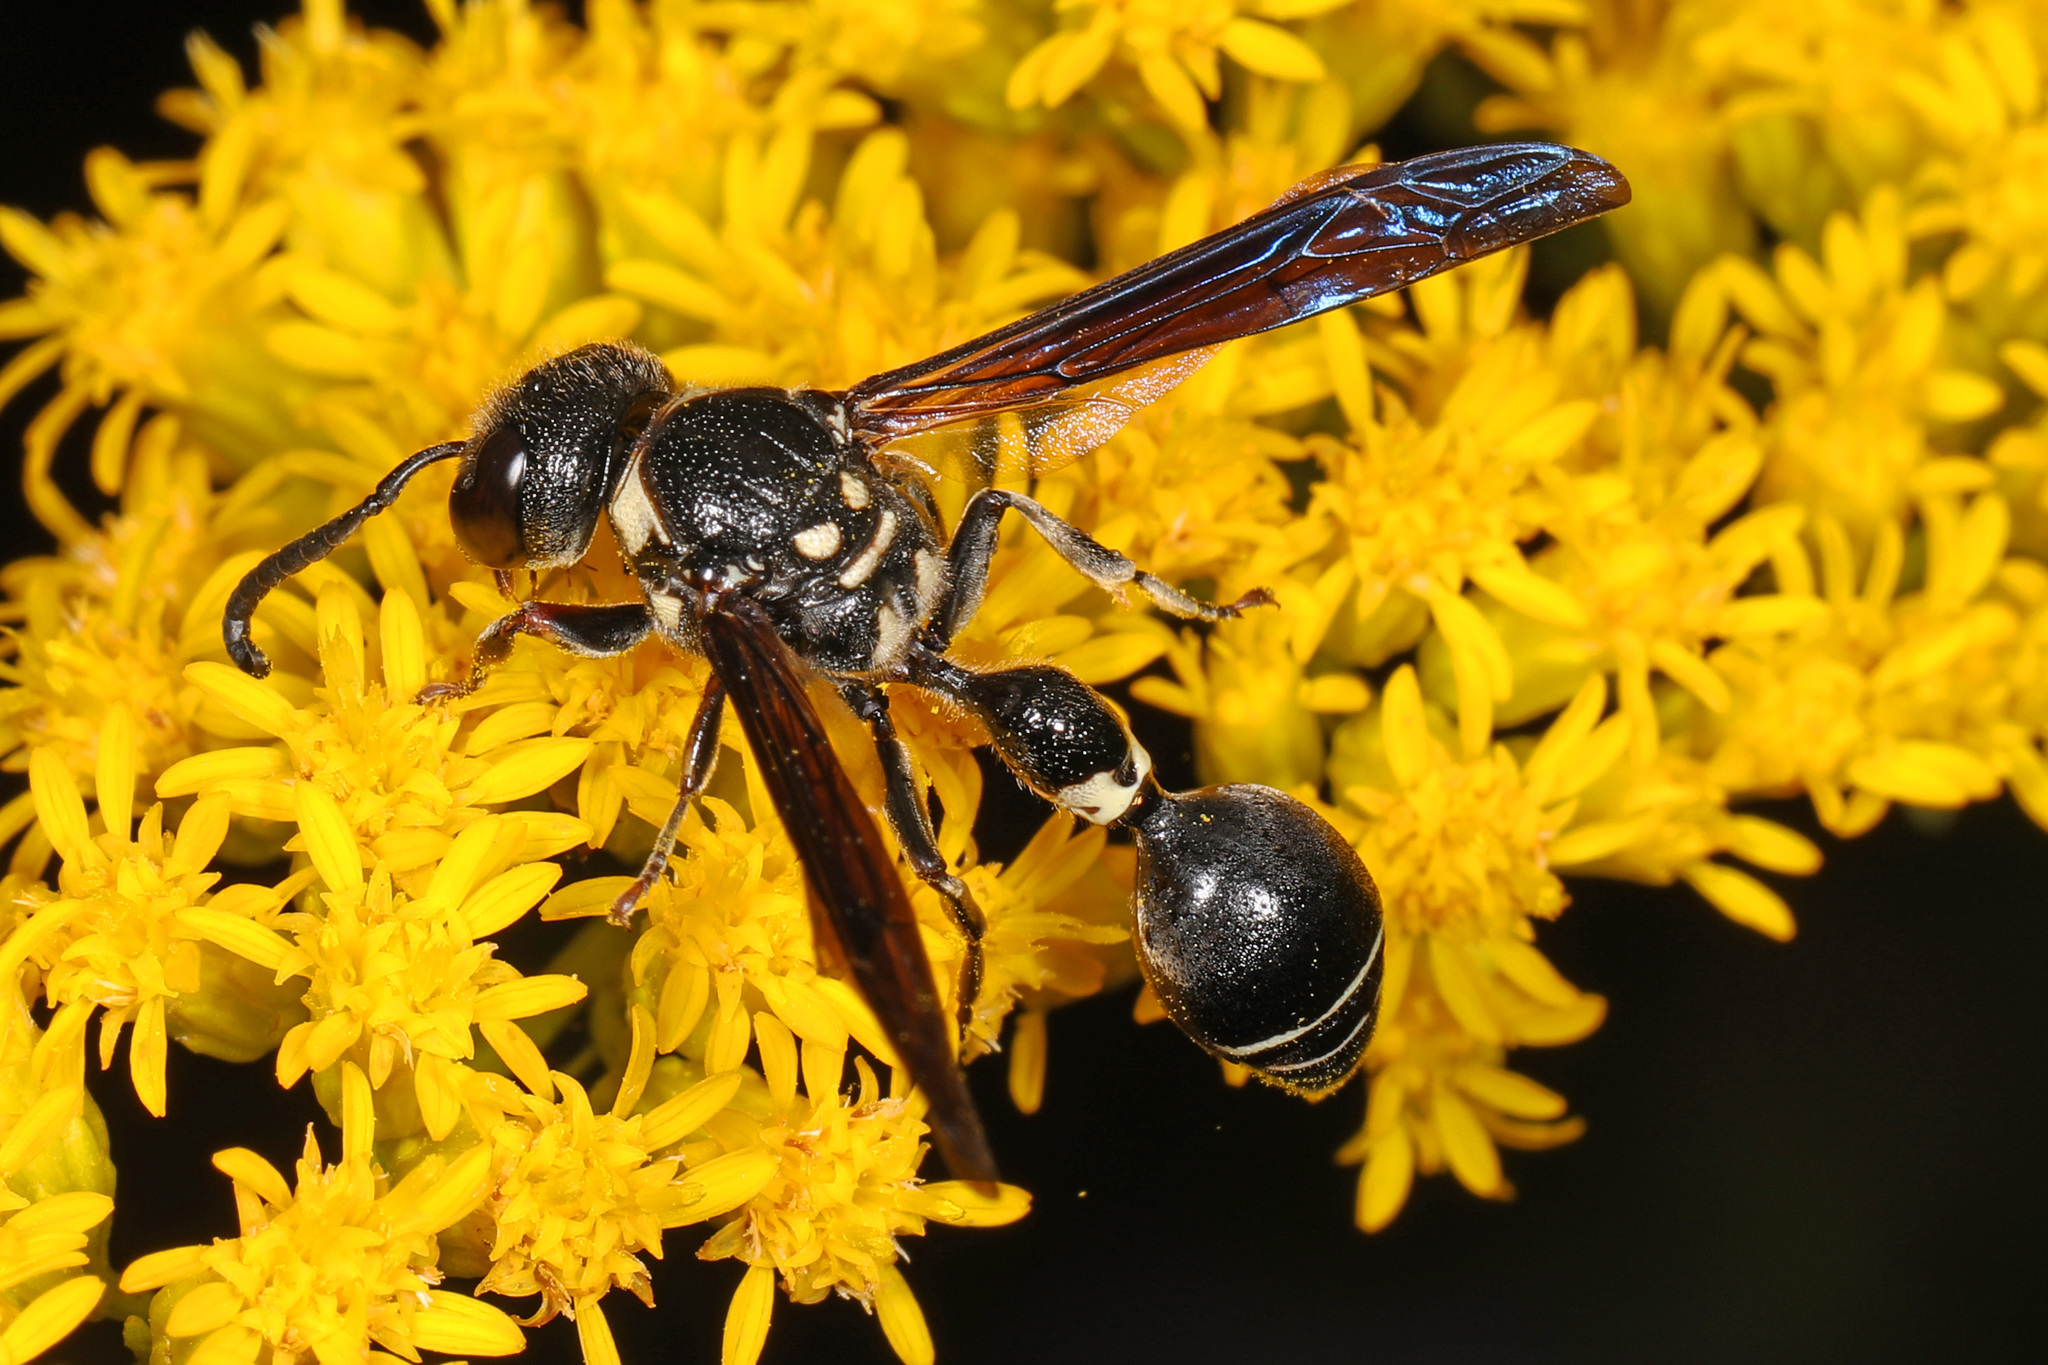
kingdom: Animalia
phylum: Arthropoda
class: Insecta
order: Hymenoptera
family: Eumenidae
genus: Zethus
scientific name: Zethus spinipes
